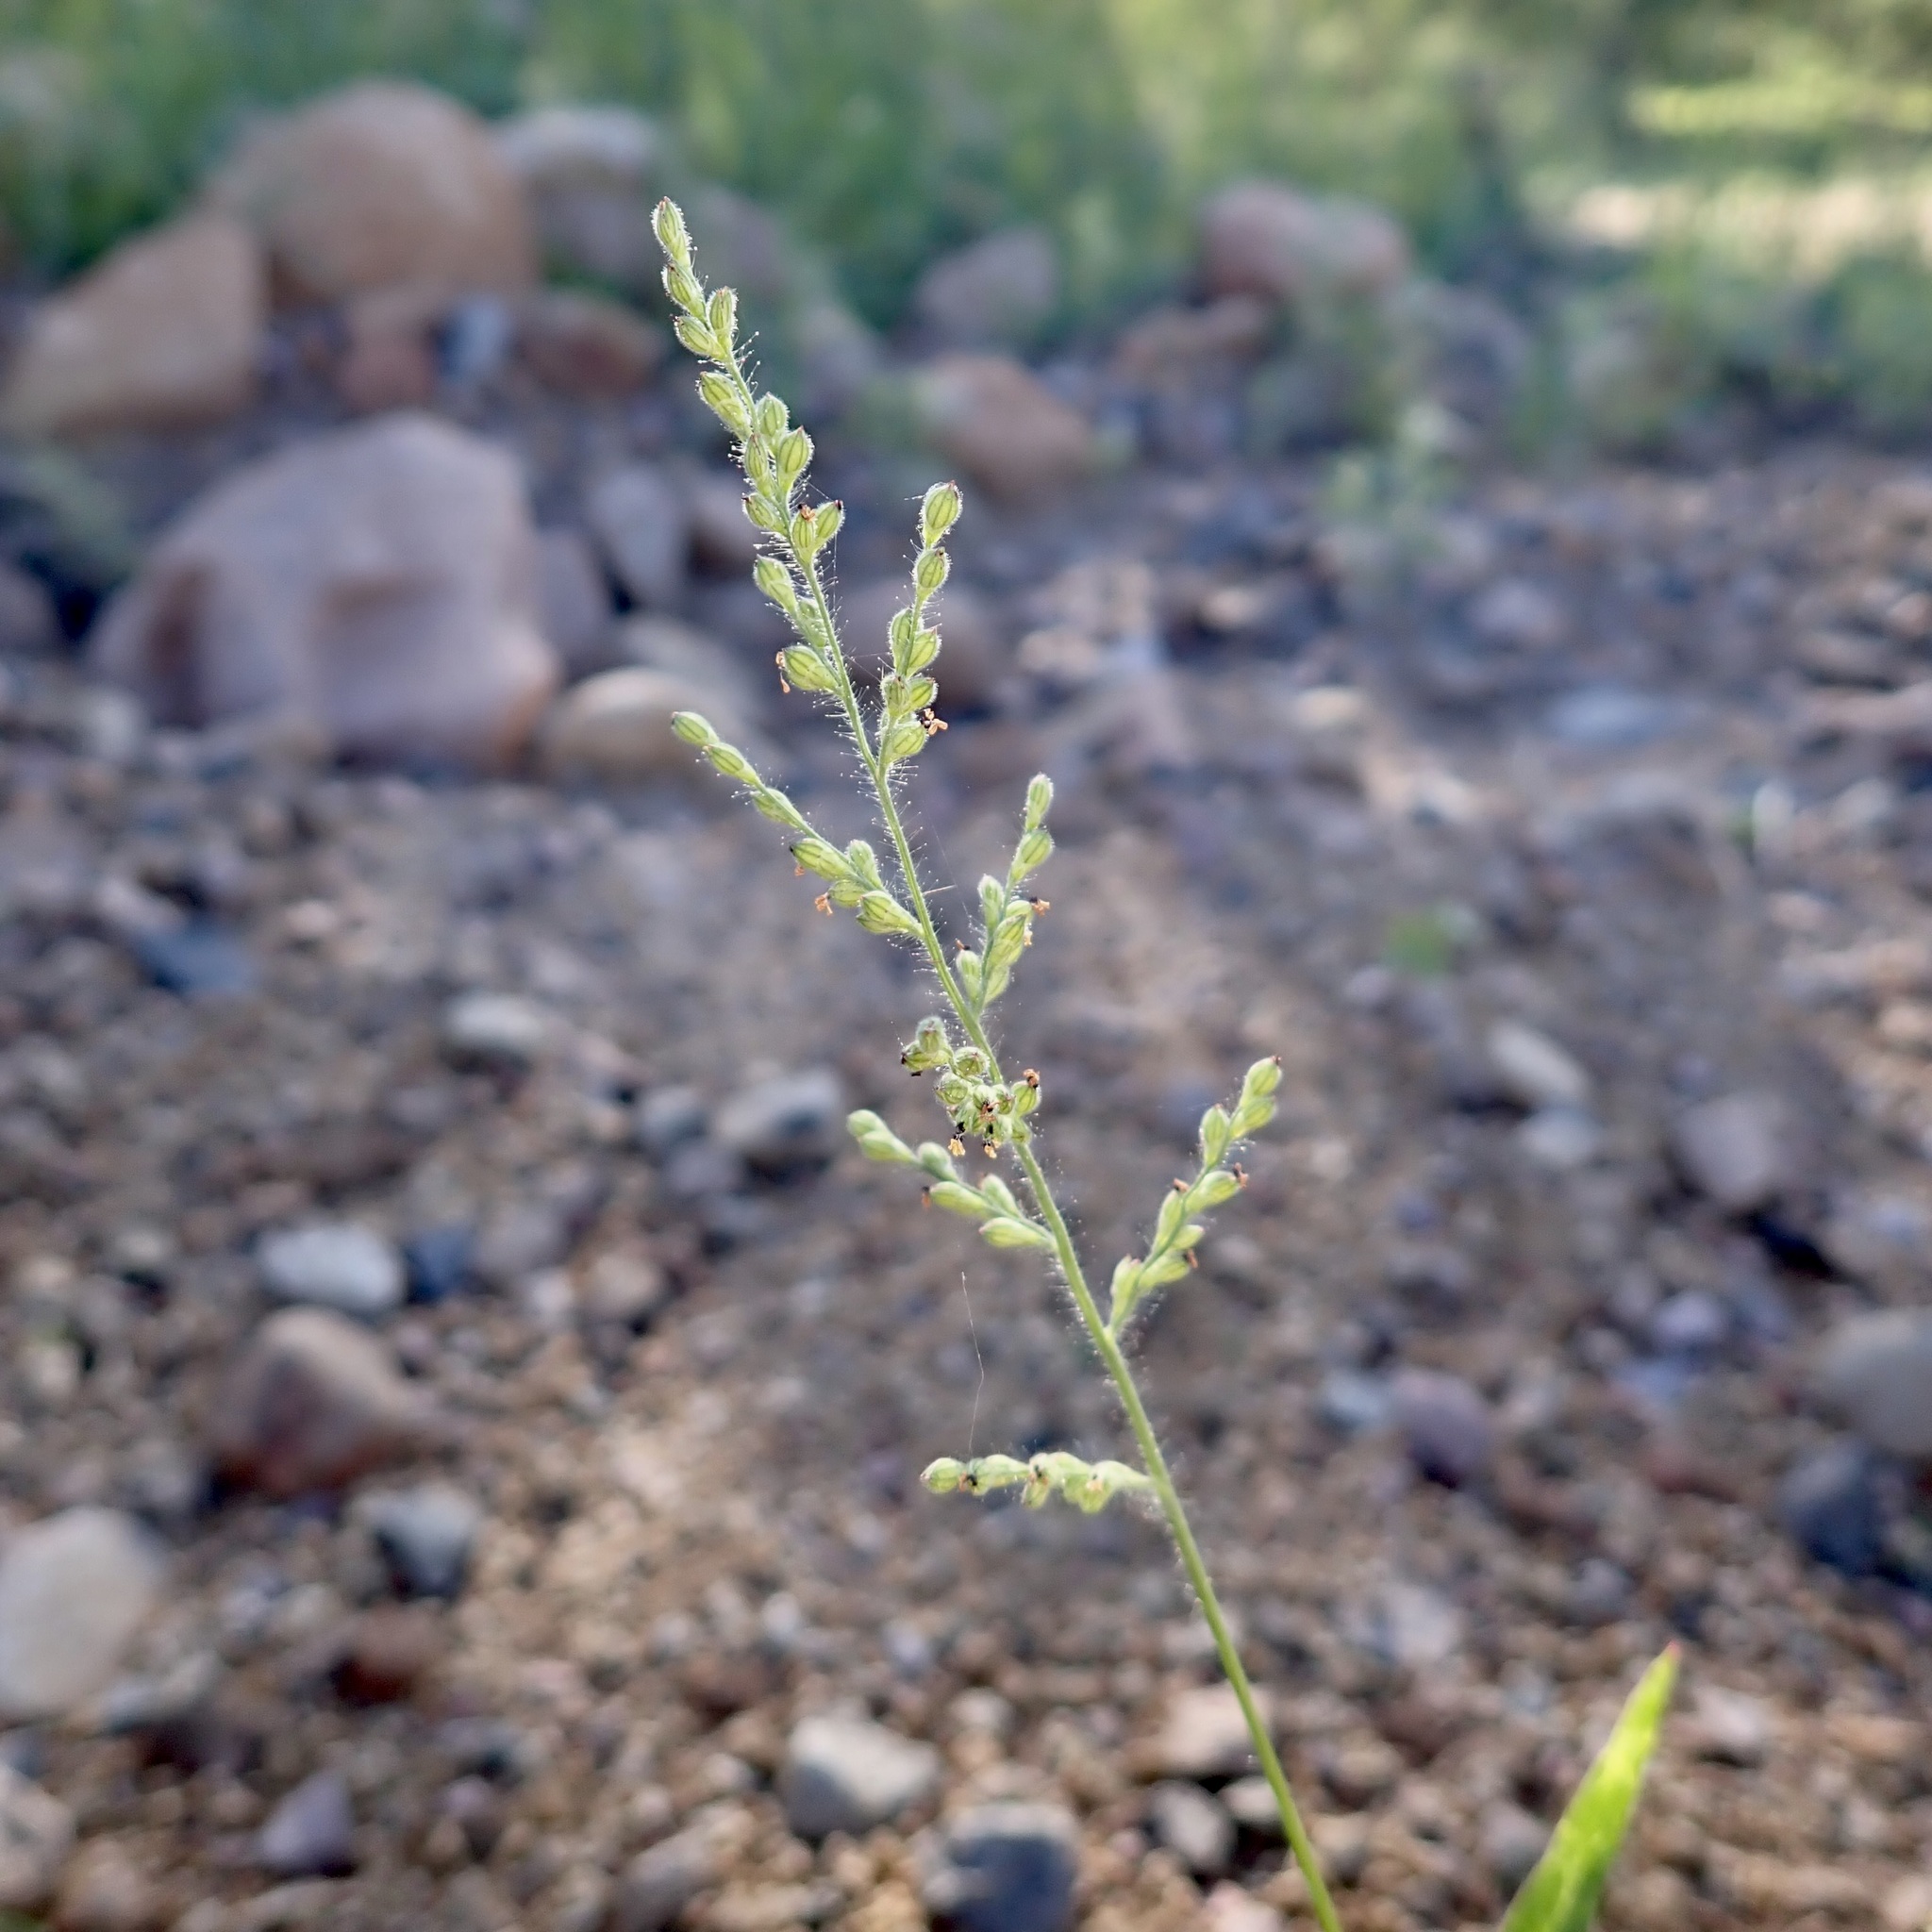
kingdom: Plantae
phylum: Tracheophyta
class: Liliopsida
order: Poales
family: Poaceae
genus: Urochloa
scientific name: Urochloa arizonica
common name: Arizona signal grass
